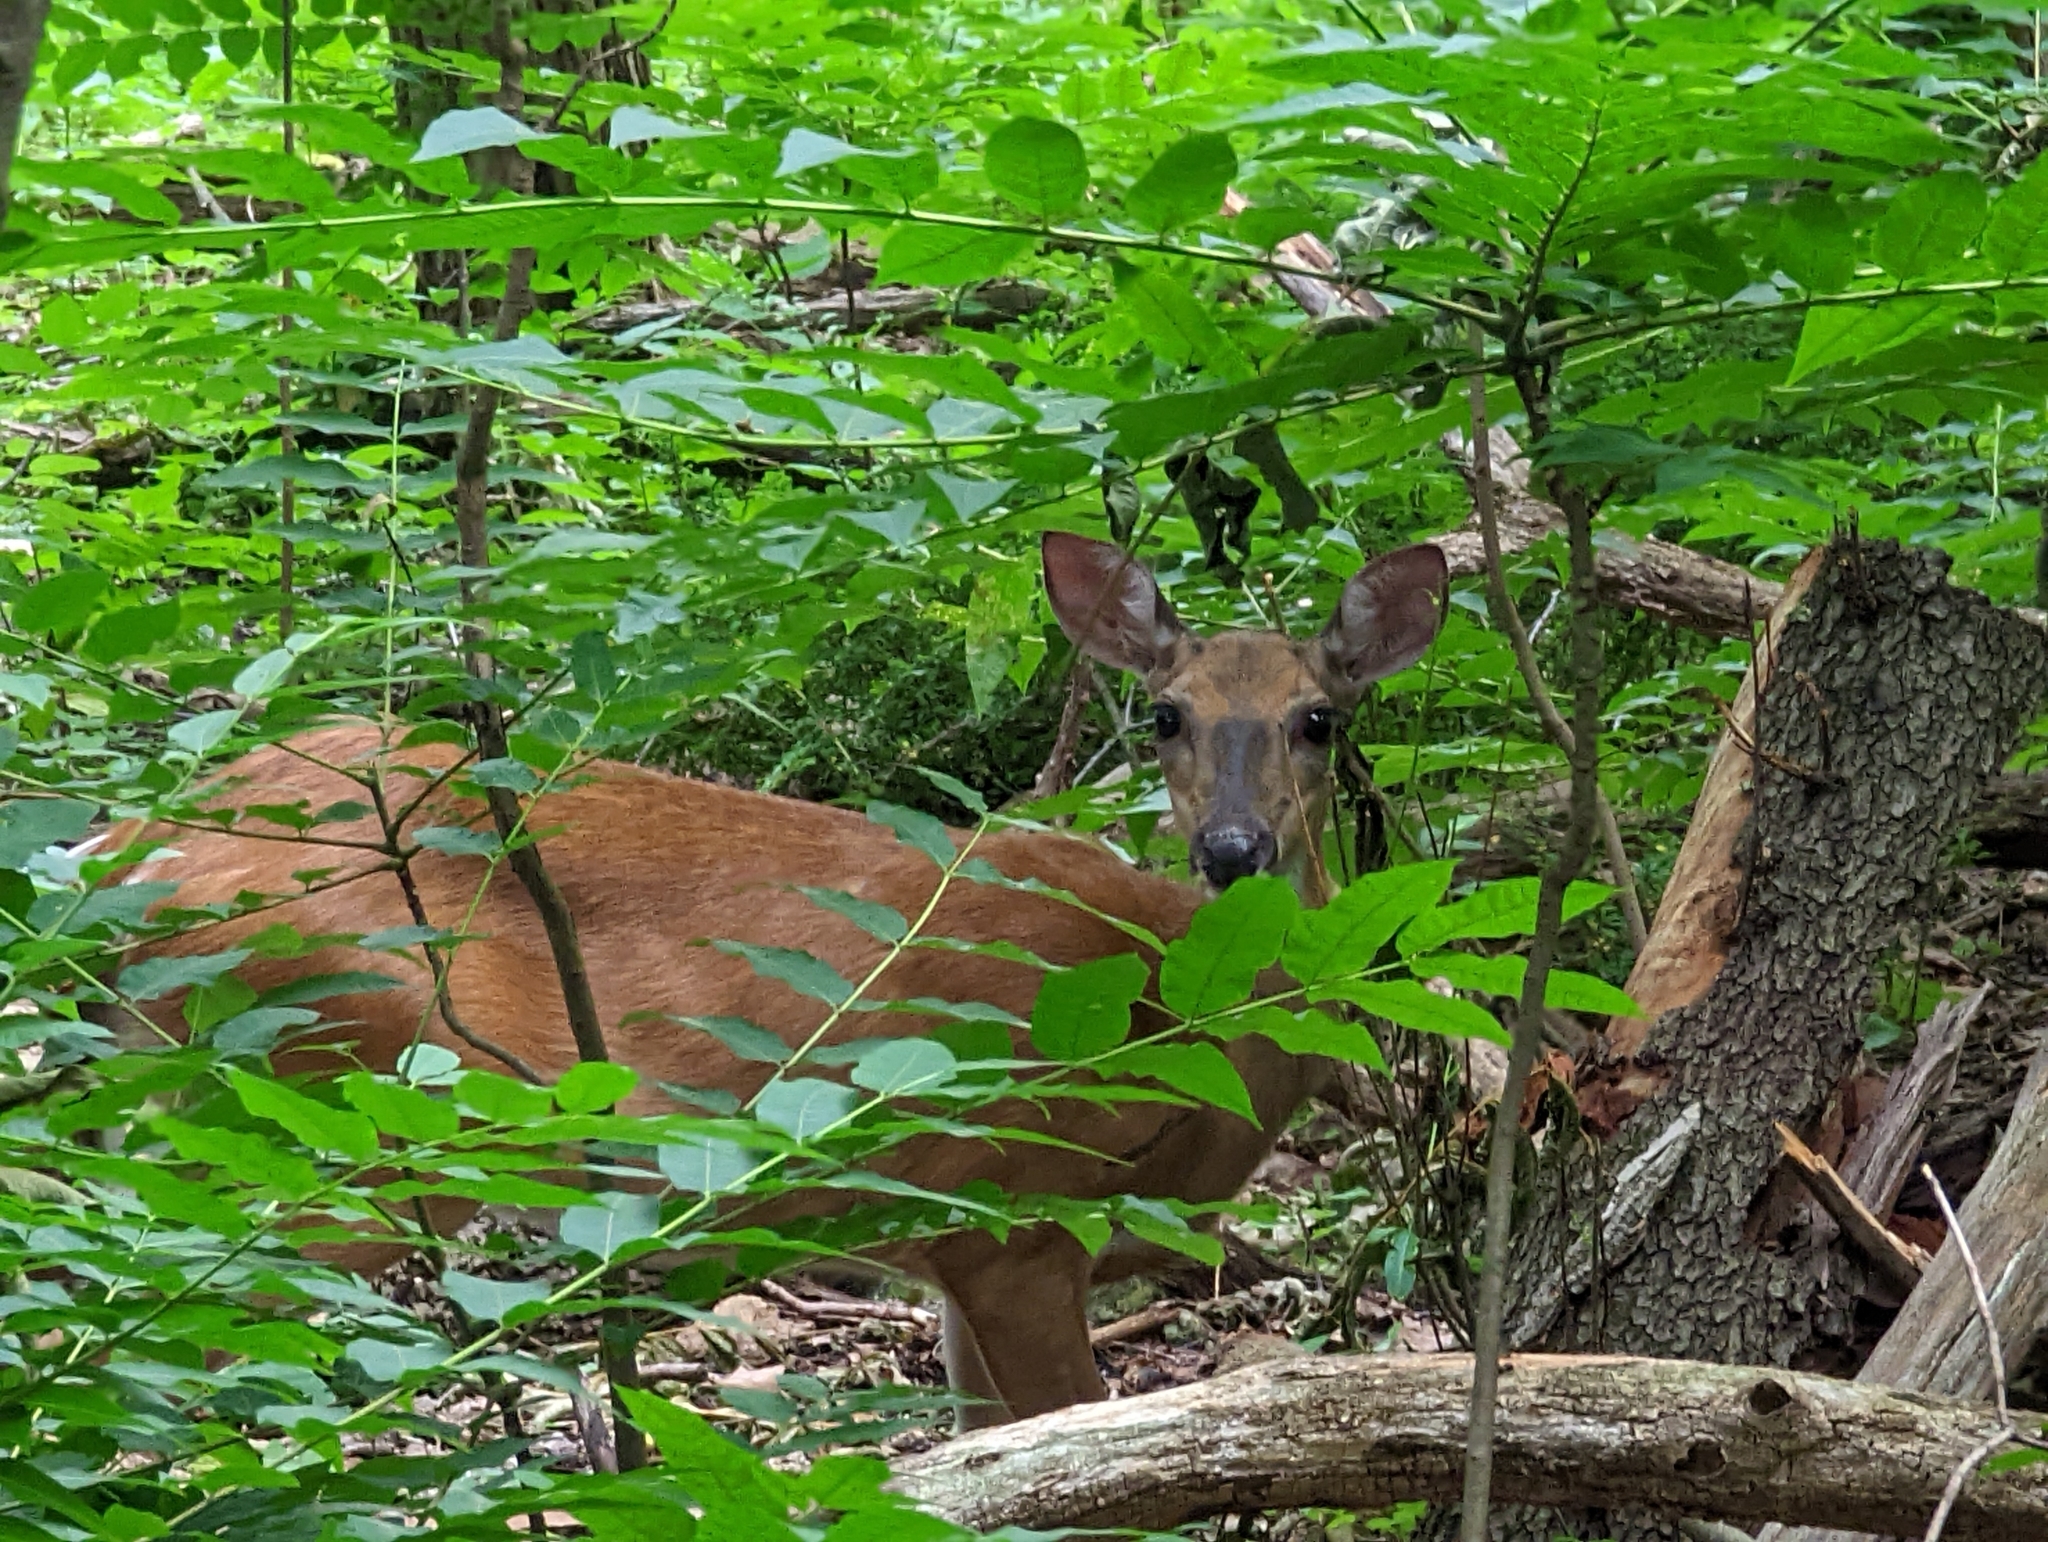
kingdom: Animalia
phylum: Chordata
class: Mammalia
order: Artiodactyla
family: Cervidae
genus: Odocoileus
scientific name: Odocoileus virginianus
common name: White-tailed deer
